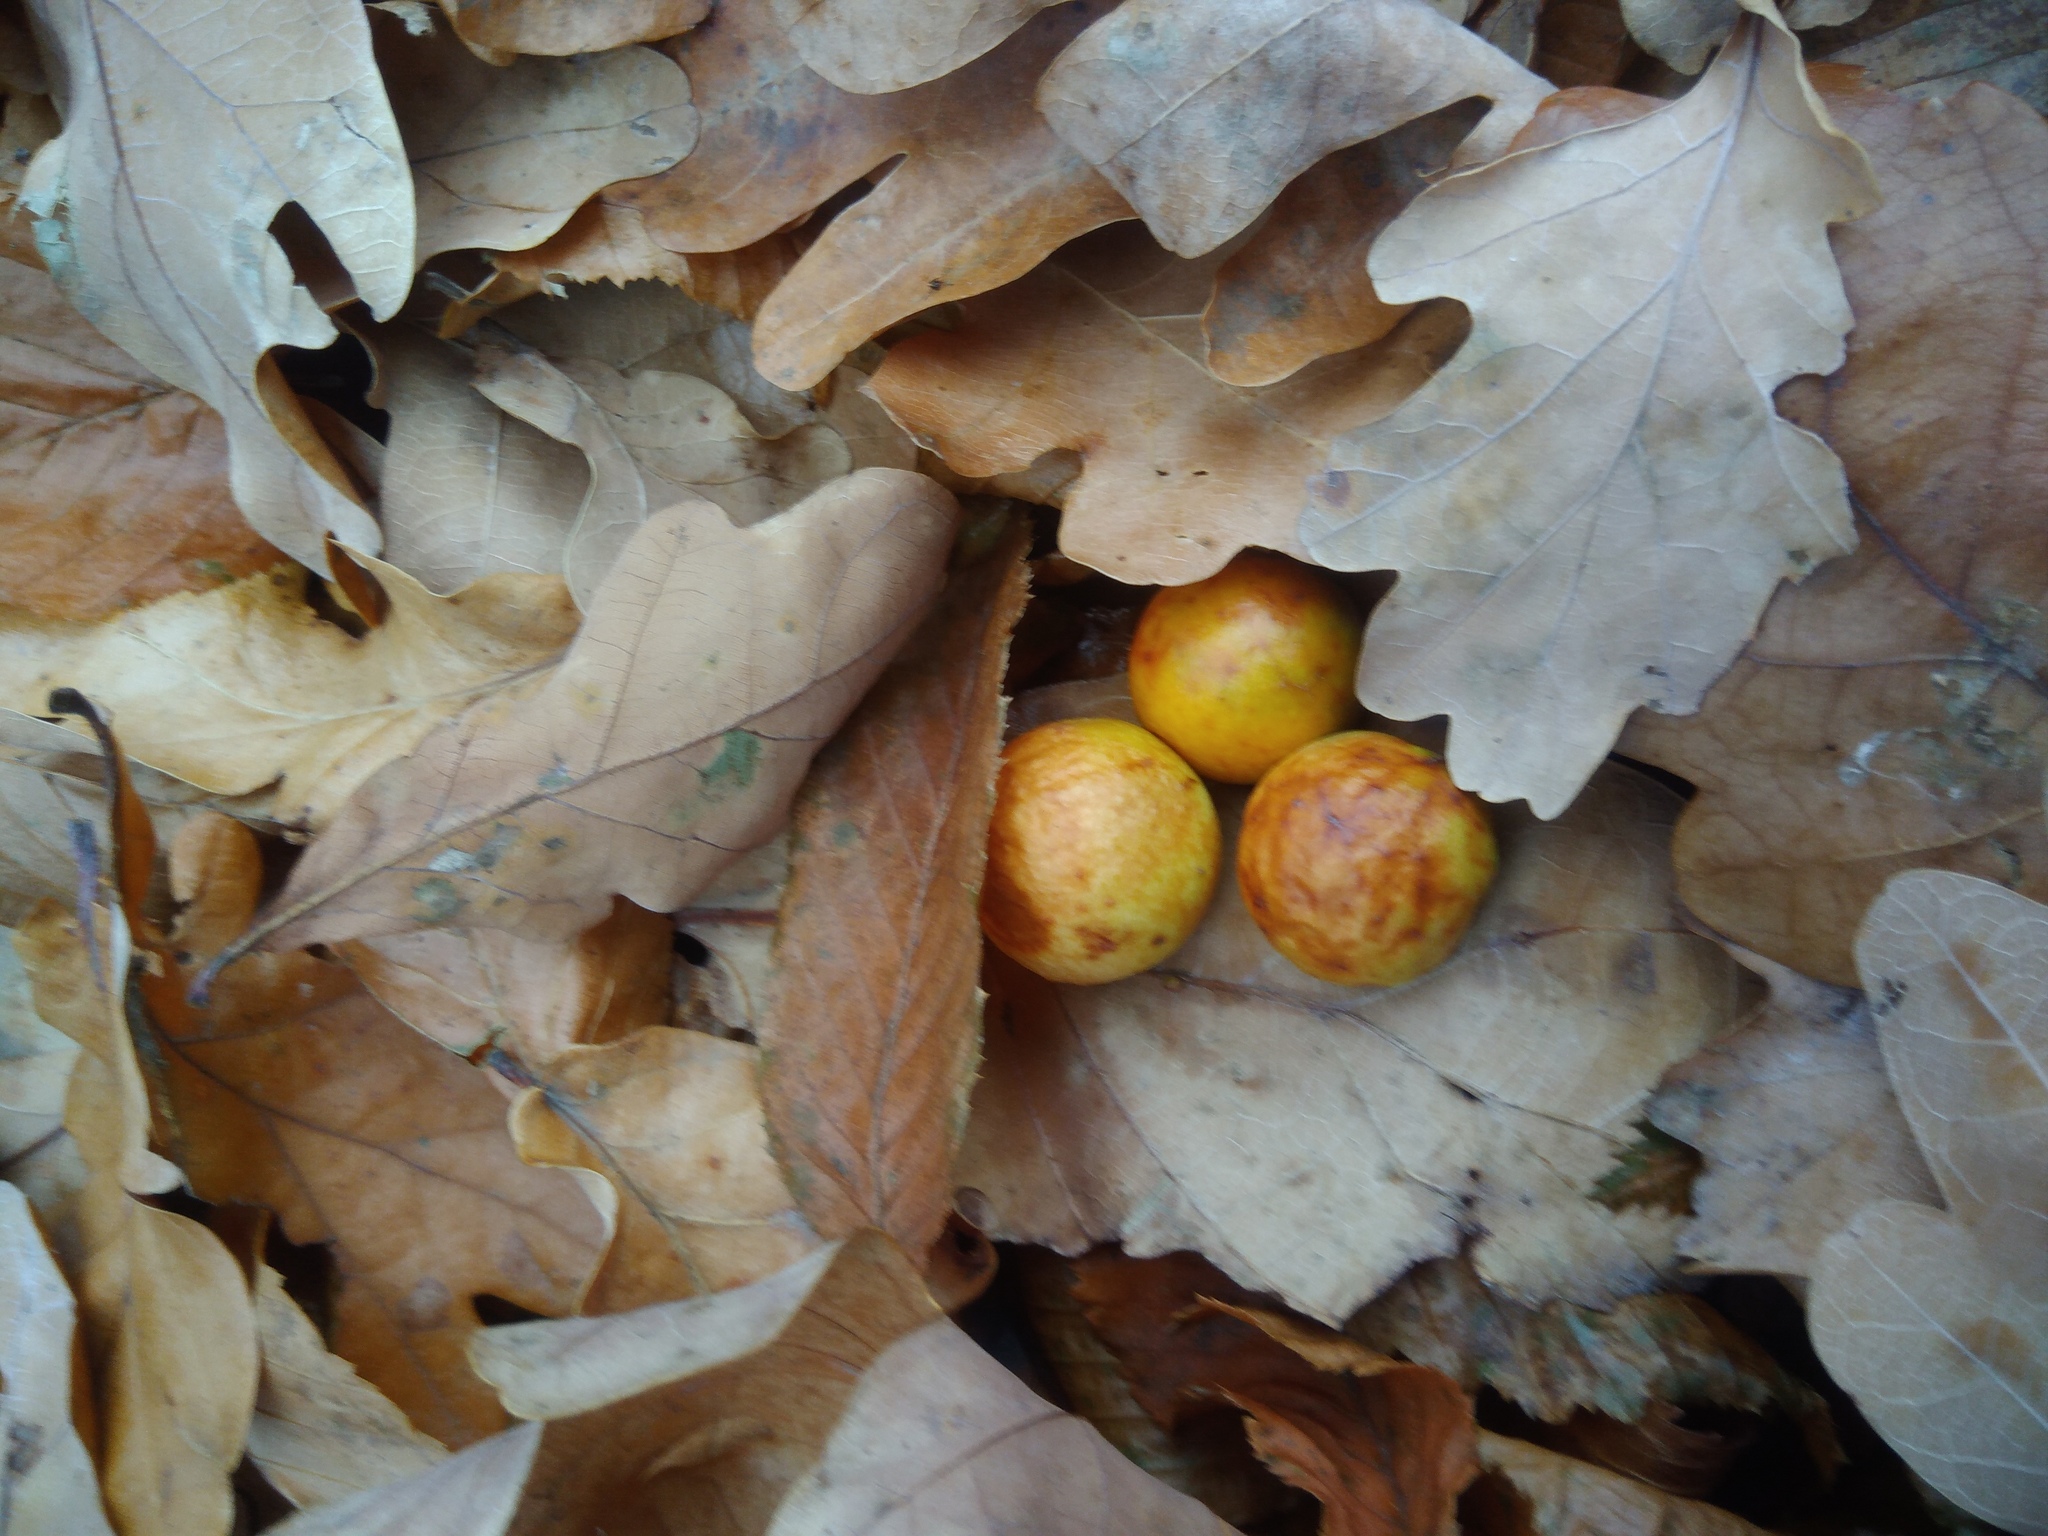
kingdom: Animalia
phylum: Arthropoda
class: Insecta
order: Hymenoptera
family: Cynipidae
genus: Cynips
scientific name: Cynips quercusfolii
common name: Cherry gall
